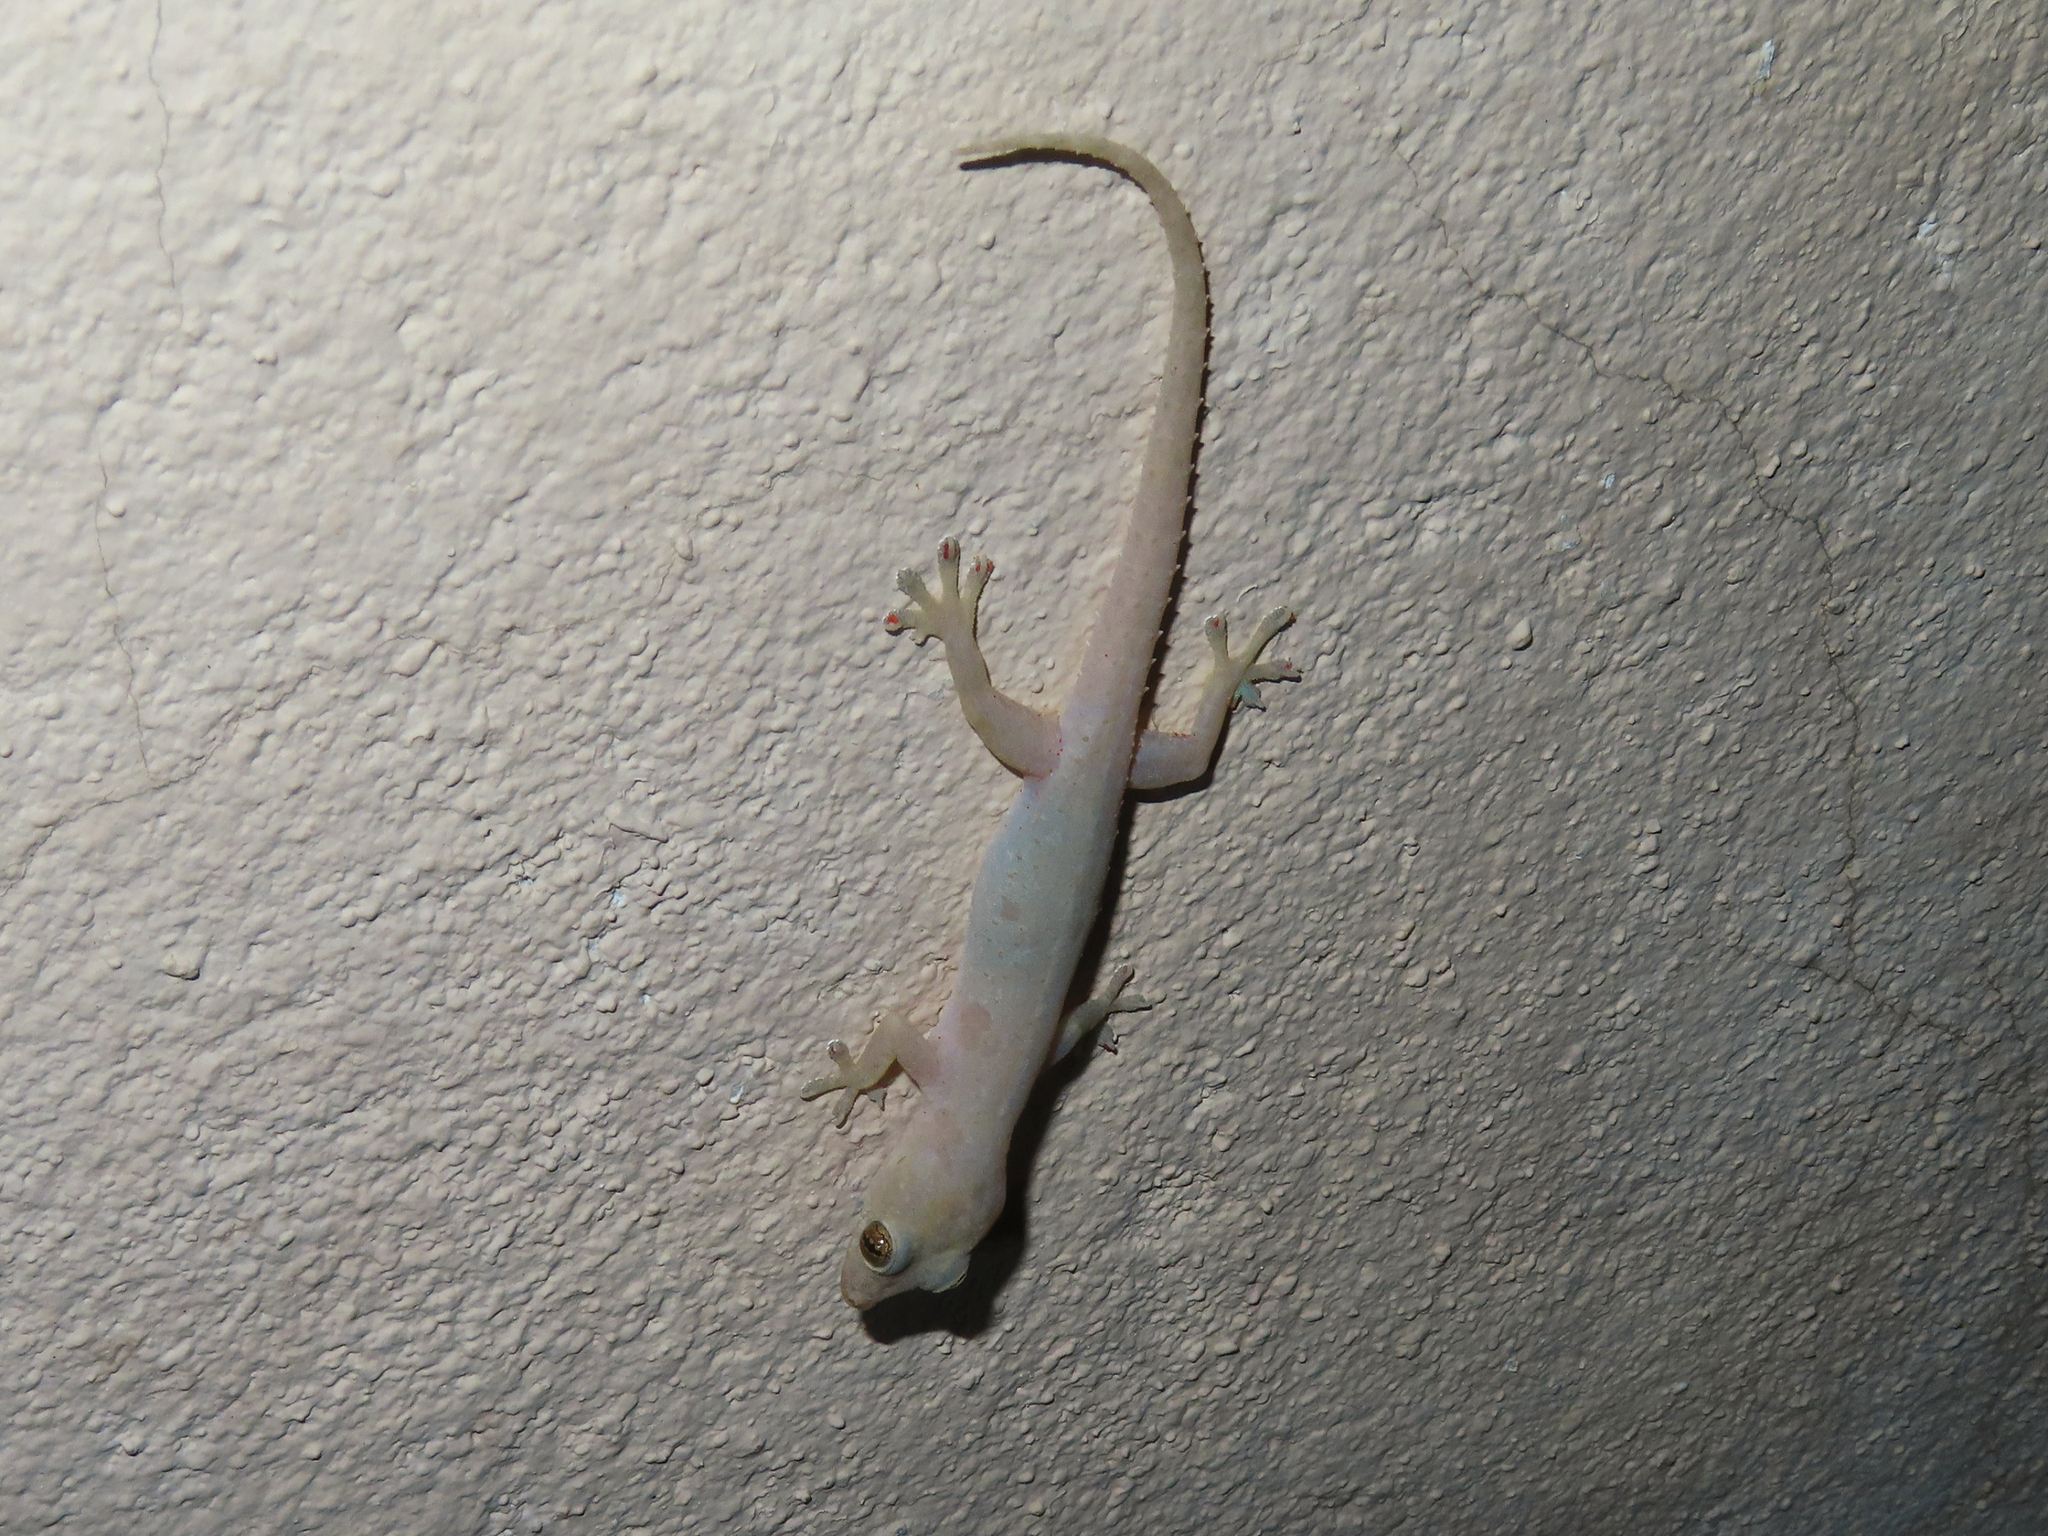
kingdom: Animalia
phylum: Chordata
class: Squamata
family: Gekkonidae
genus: Hemidactylus
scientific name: Hemidactylus frenatus
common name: Common house gecko
